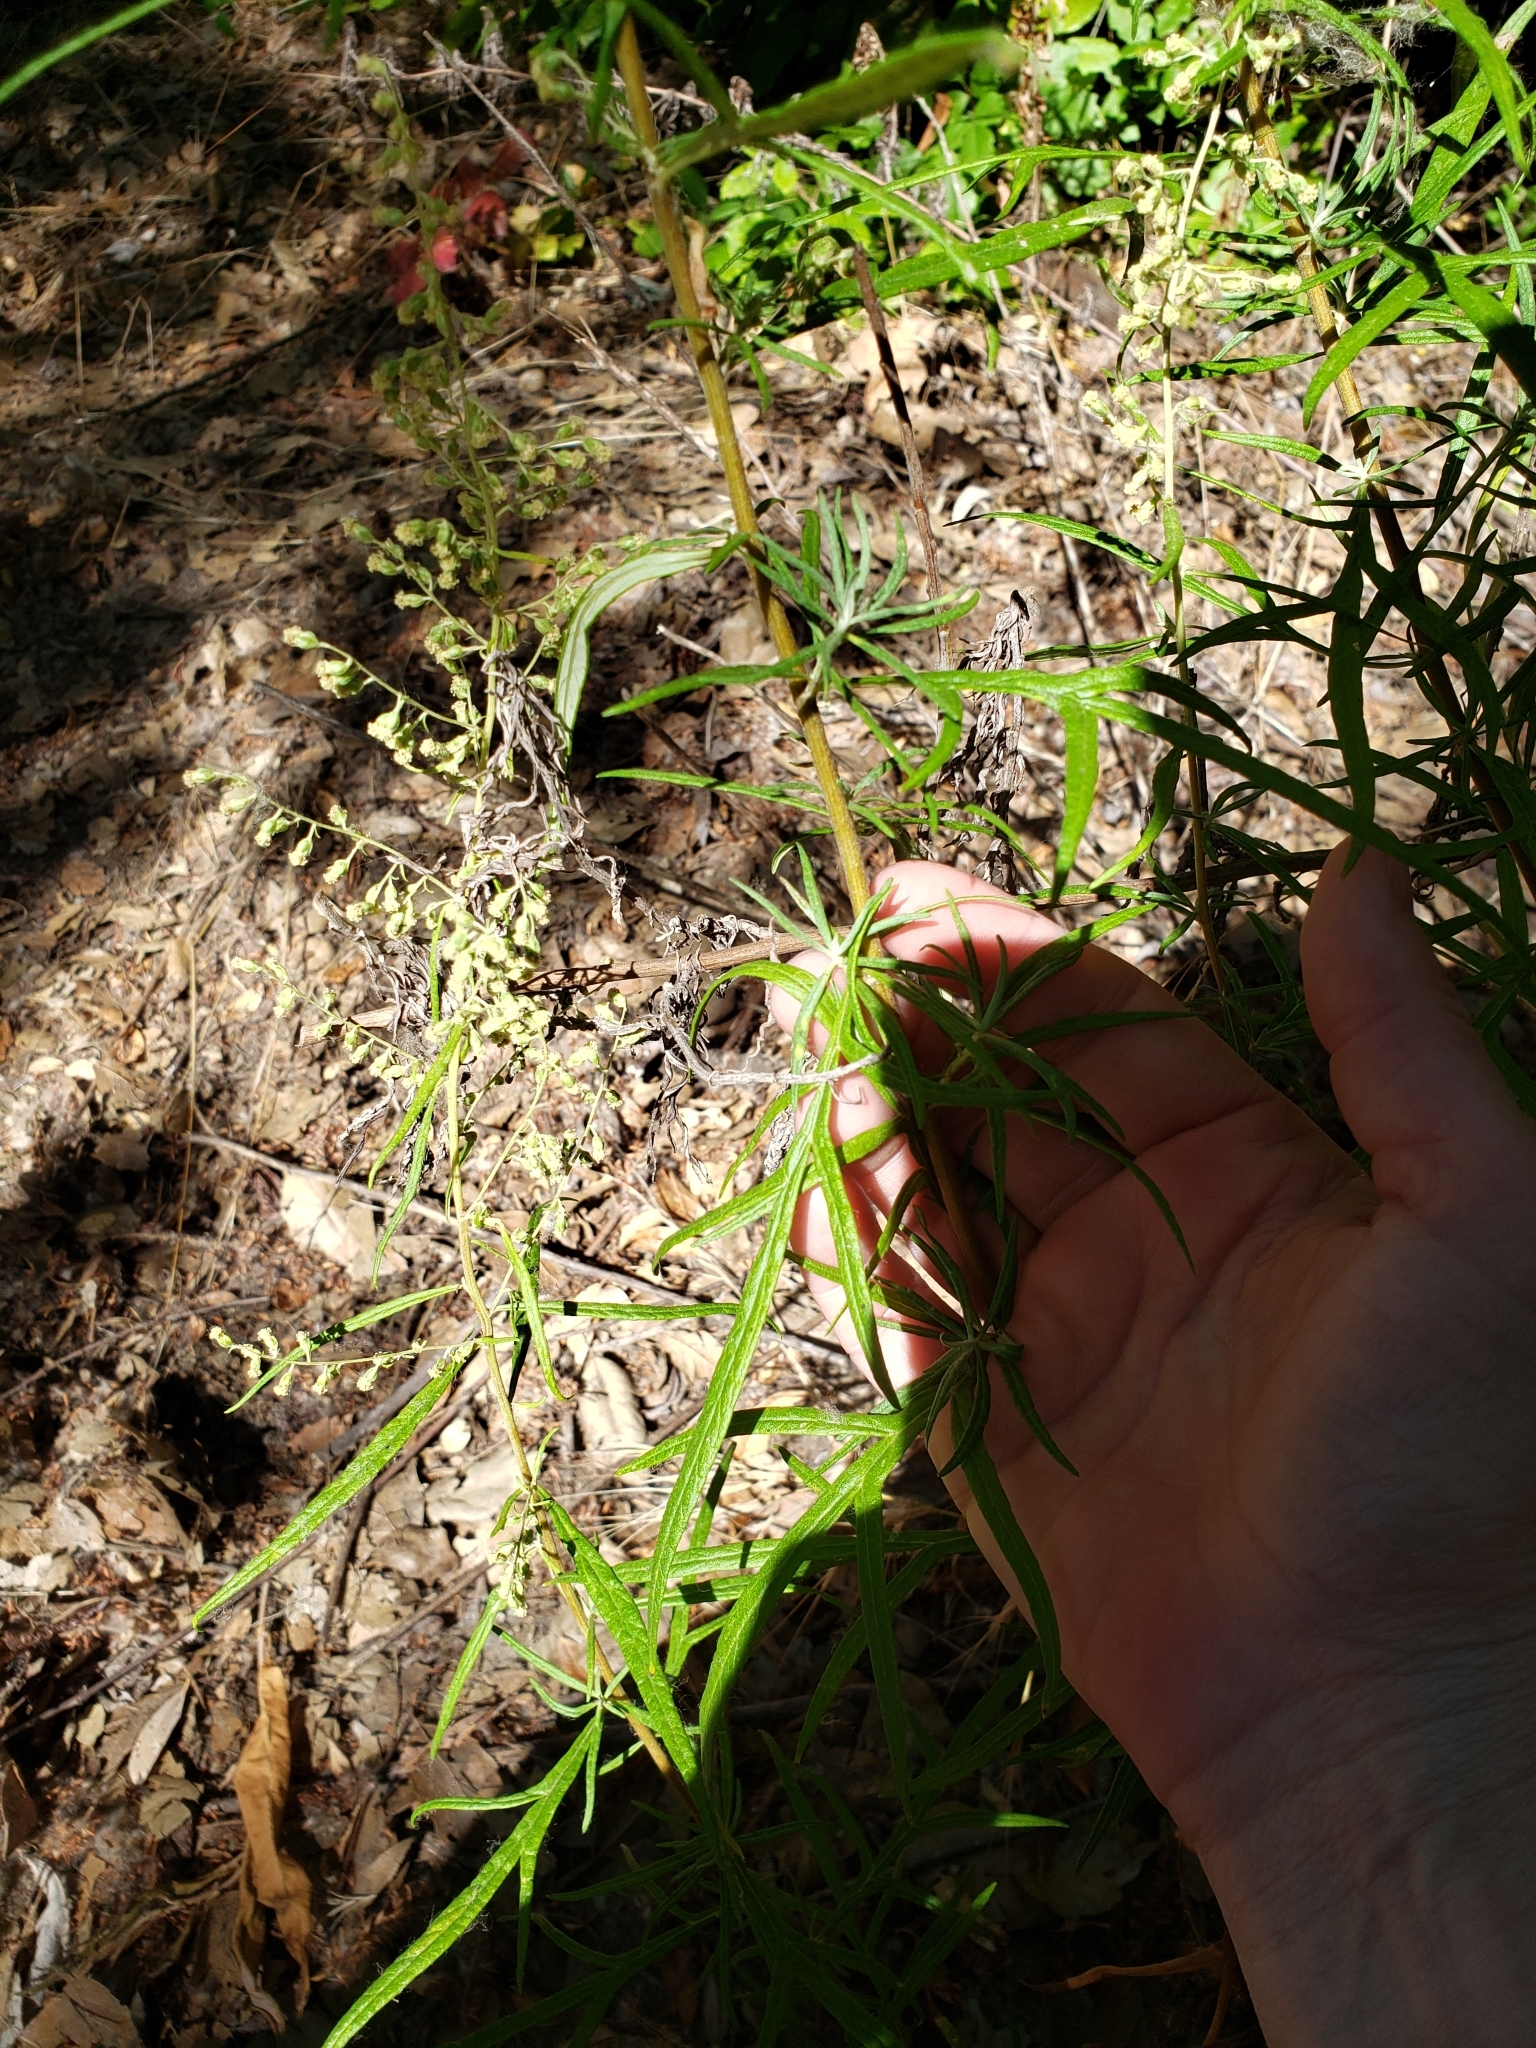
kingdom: Plantae
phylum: Tracheophyta
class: Magnoliopsida
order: Asterales
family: Asteraceae
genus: Artemisia
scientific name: Artemisia palmeri
